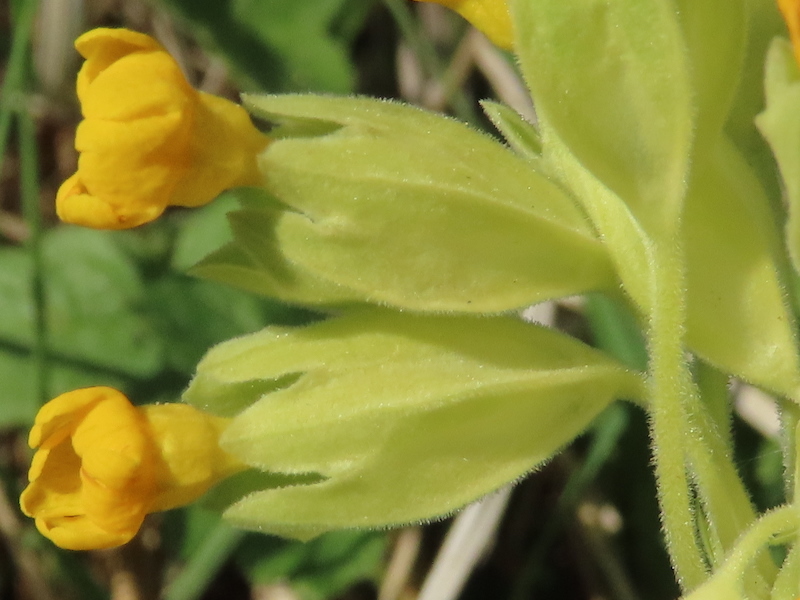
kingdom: Plantae
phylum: Tracheophyta
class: Magnoliopsida
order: Ericales
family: Primulaceae
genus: Primula
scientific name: Primula veris
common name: Cowslip
